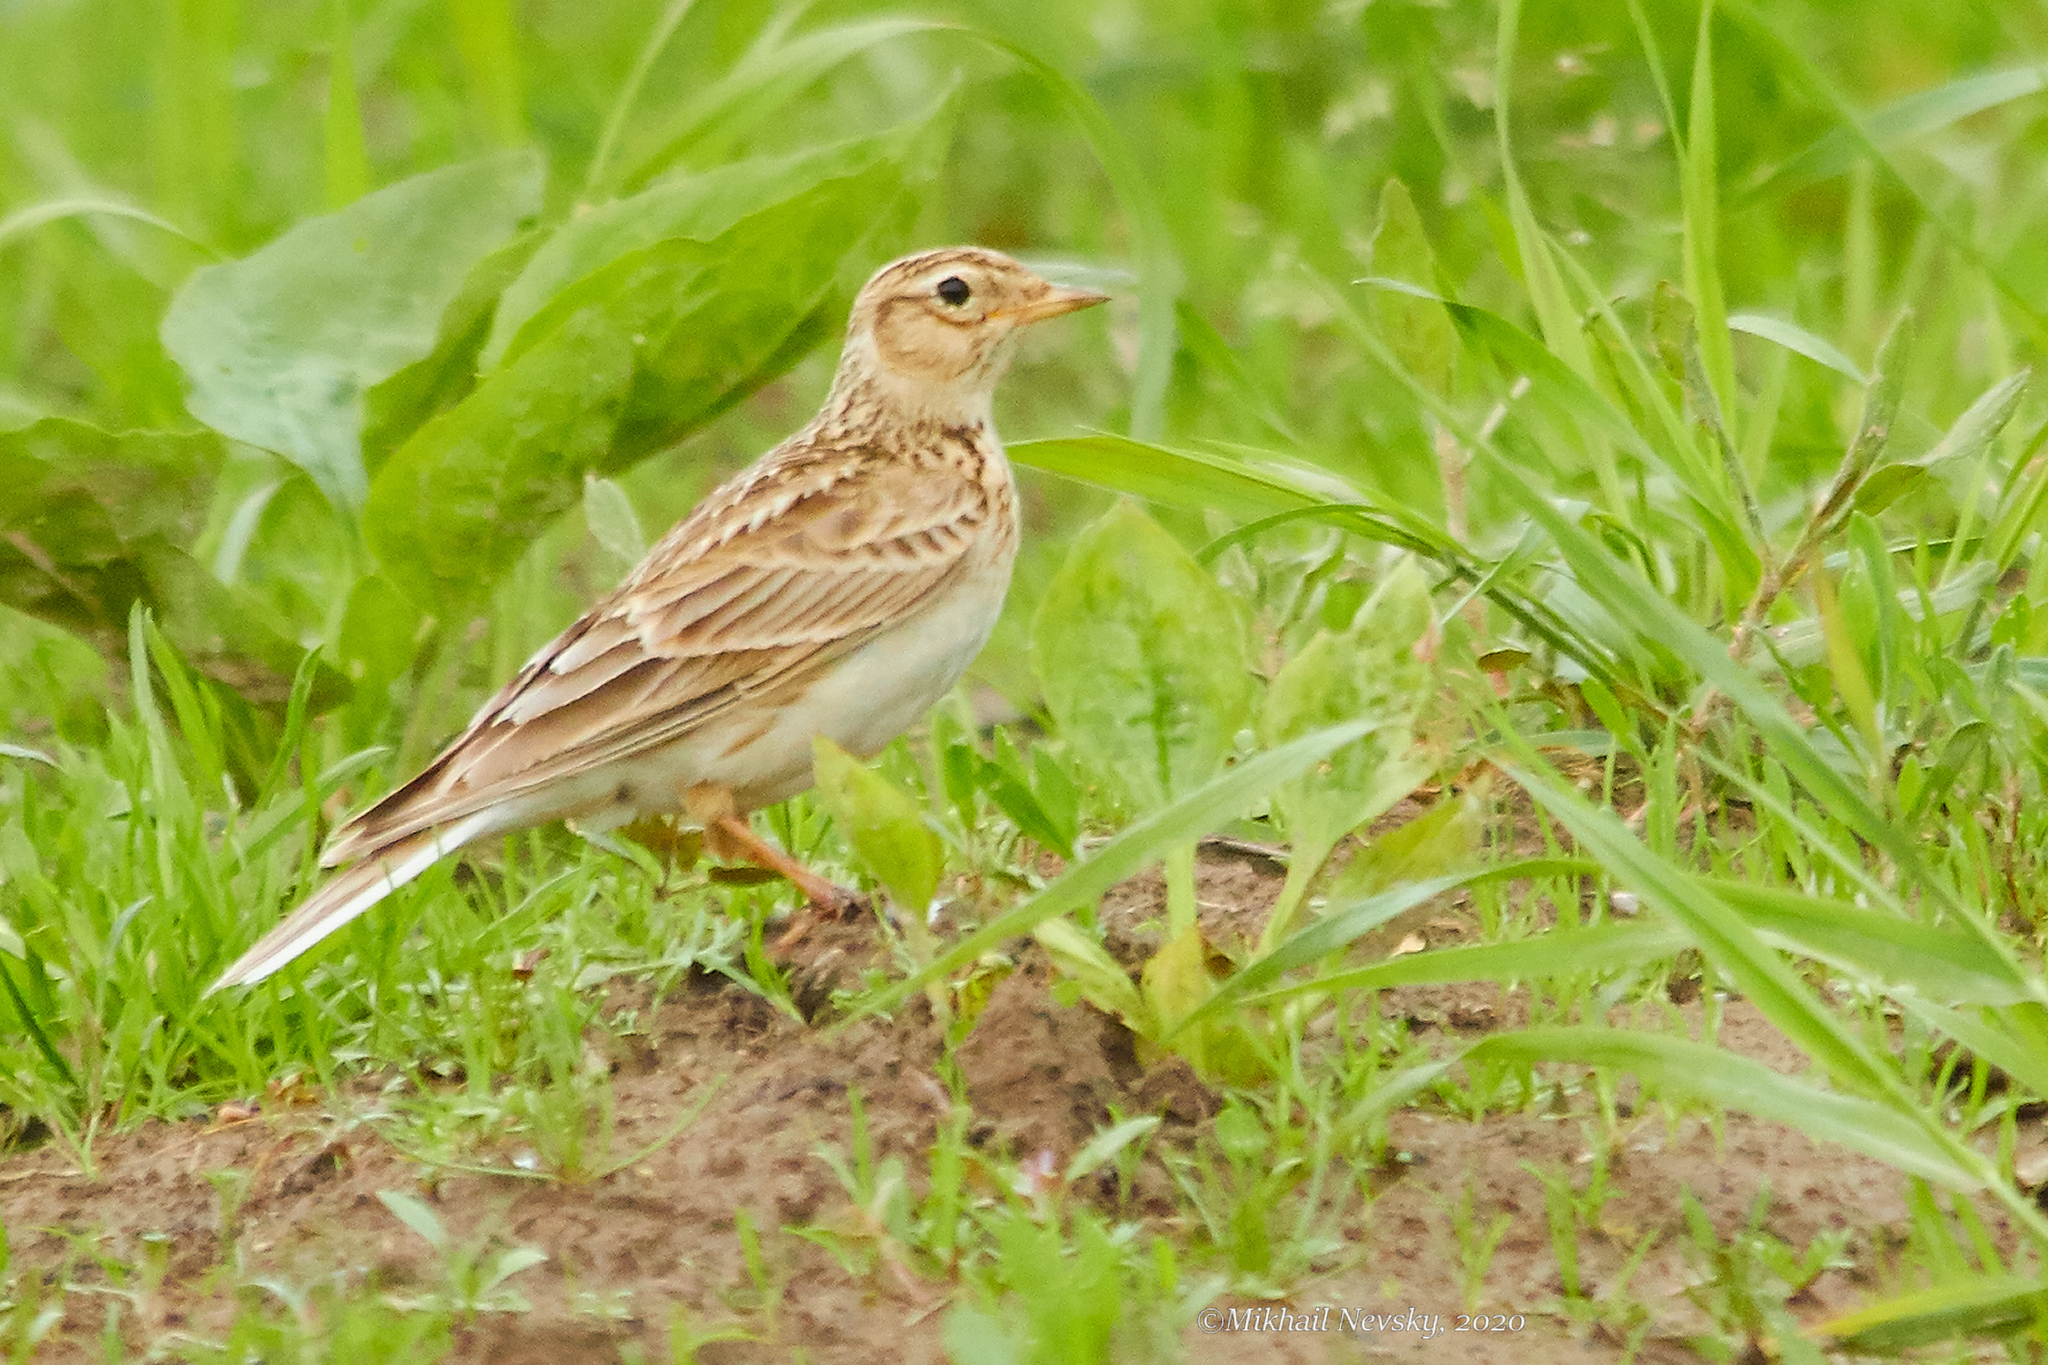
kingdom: Animalia
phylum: Chordata
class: Aves
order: Passeriformes
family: Alaudidae
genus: Alauda
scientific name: Alauda arvensis
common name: Eurasian skylark
